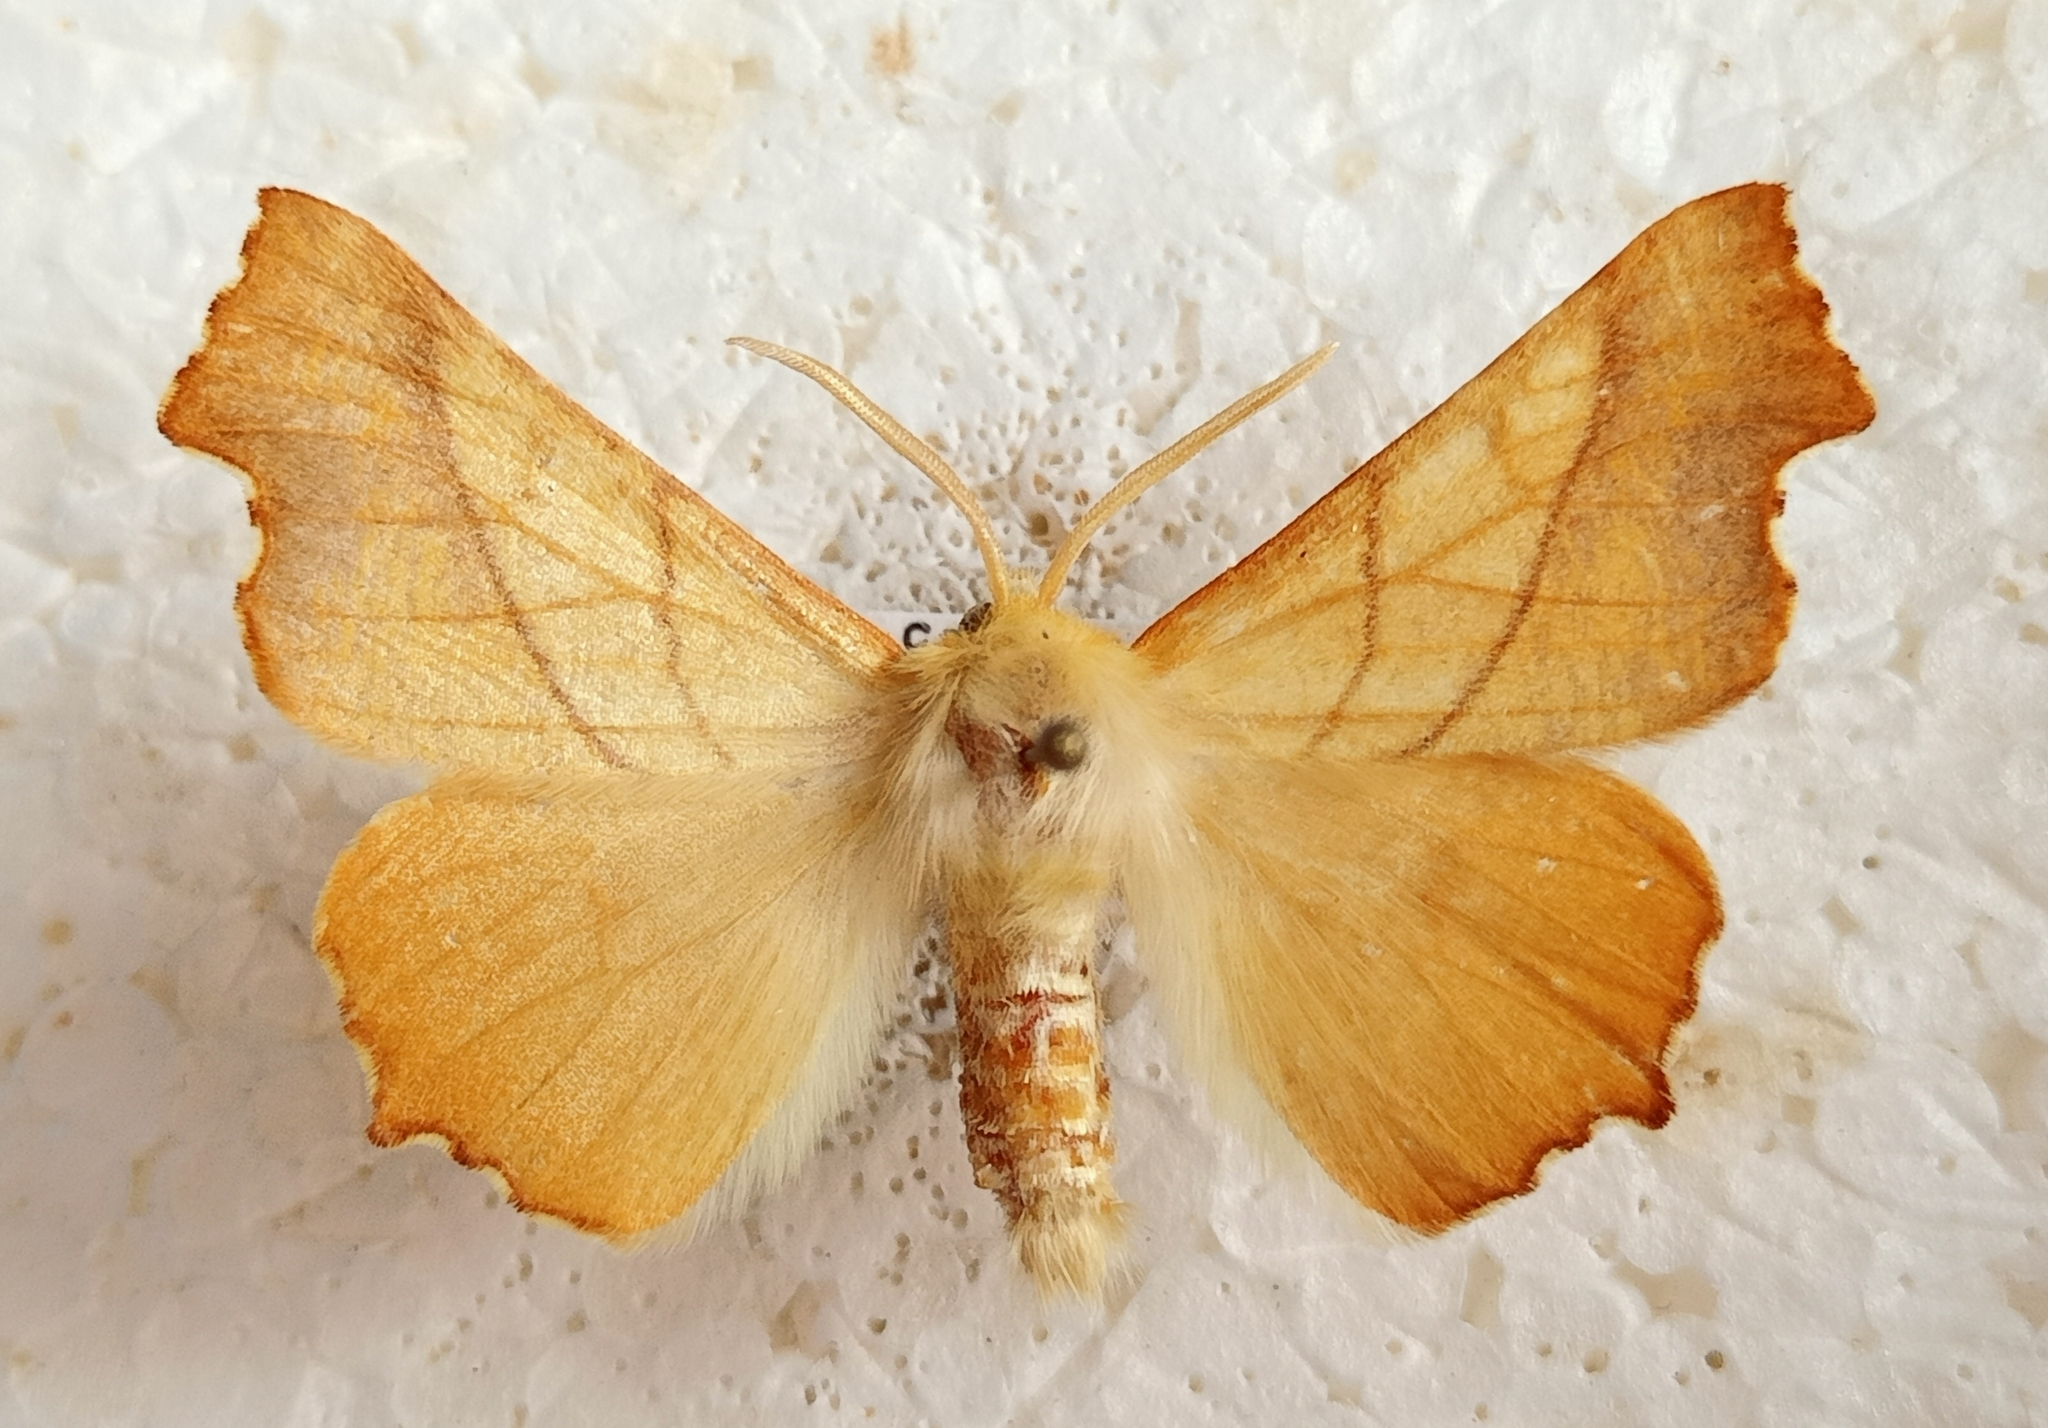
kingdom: Animalia
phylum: Arthropoda
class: Insecta
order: Lepidoptera
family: Geometridae
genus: Ennomos
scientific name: Ennomos fuscantaria
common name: Dusky thorn
